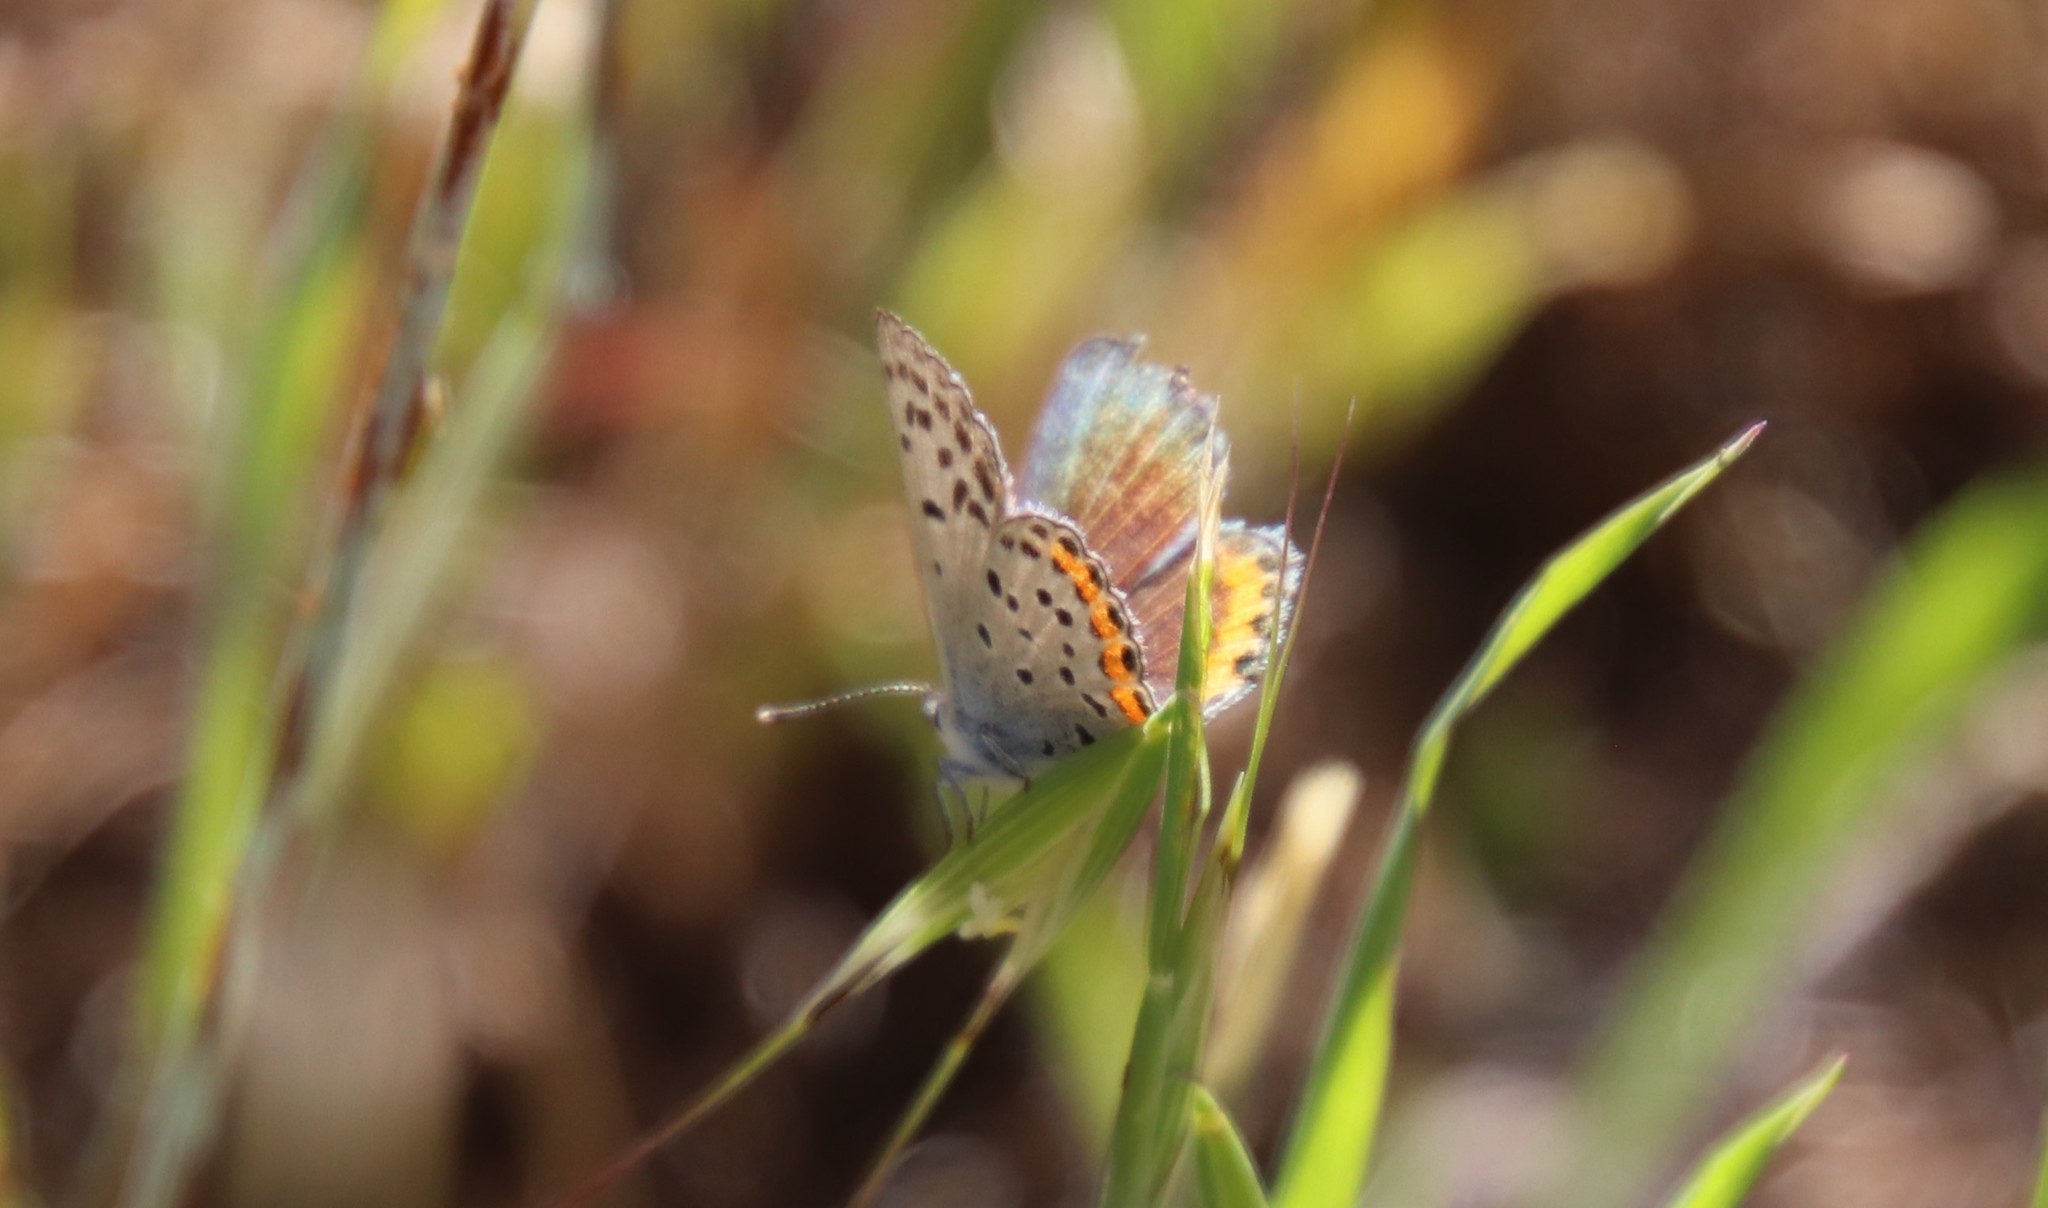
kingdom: Animalia
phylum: Arthropoda
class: Insecta
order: Lepidoptera
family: Lycaenidae
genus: Icaricia
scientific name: Icaricia acmon
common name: Acmon blue
